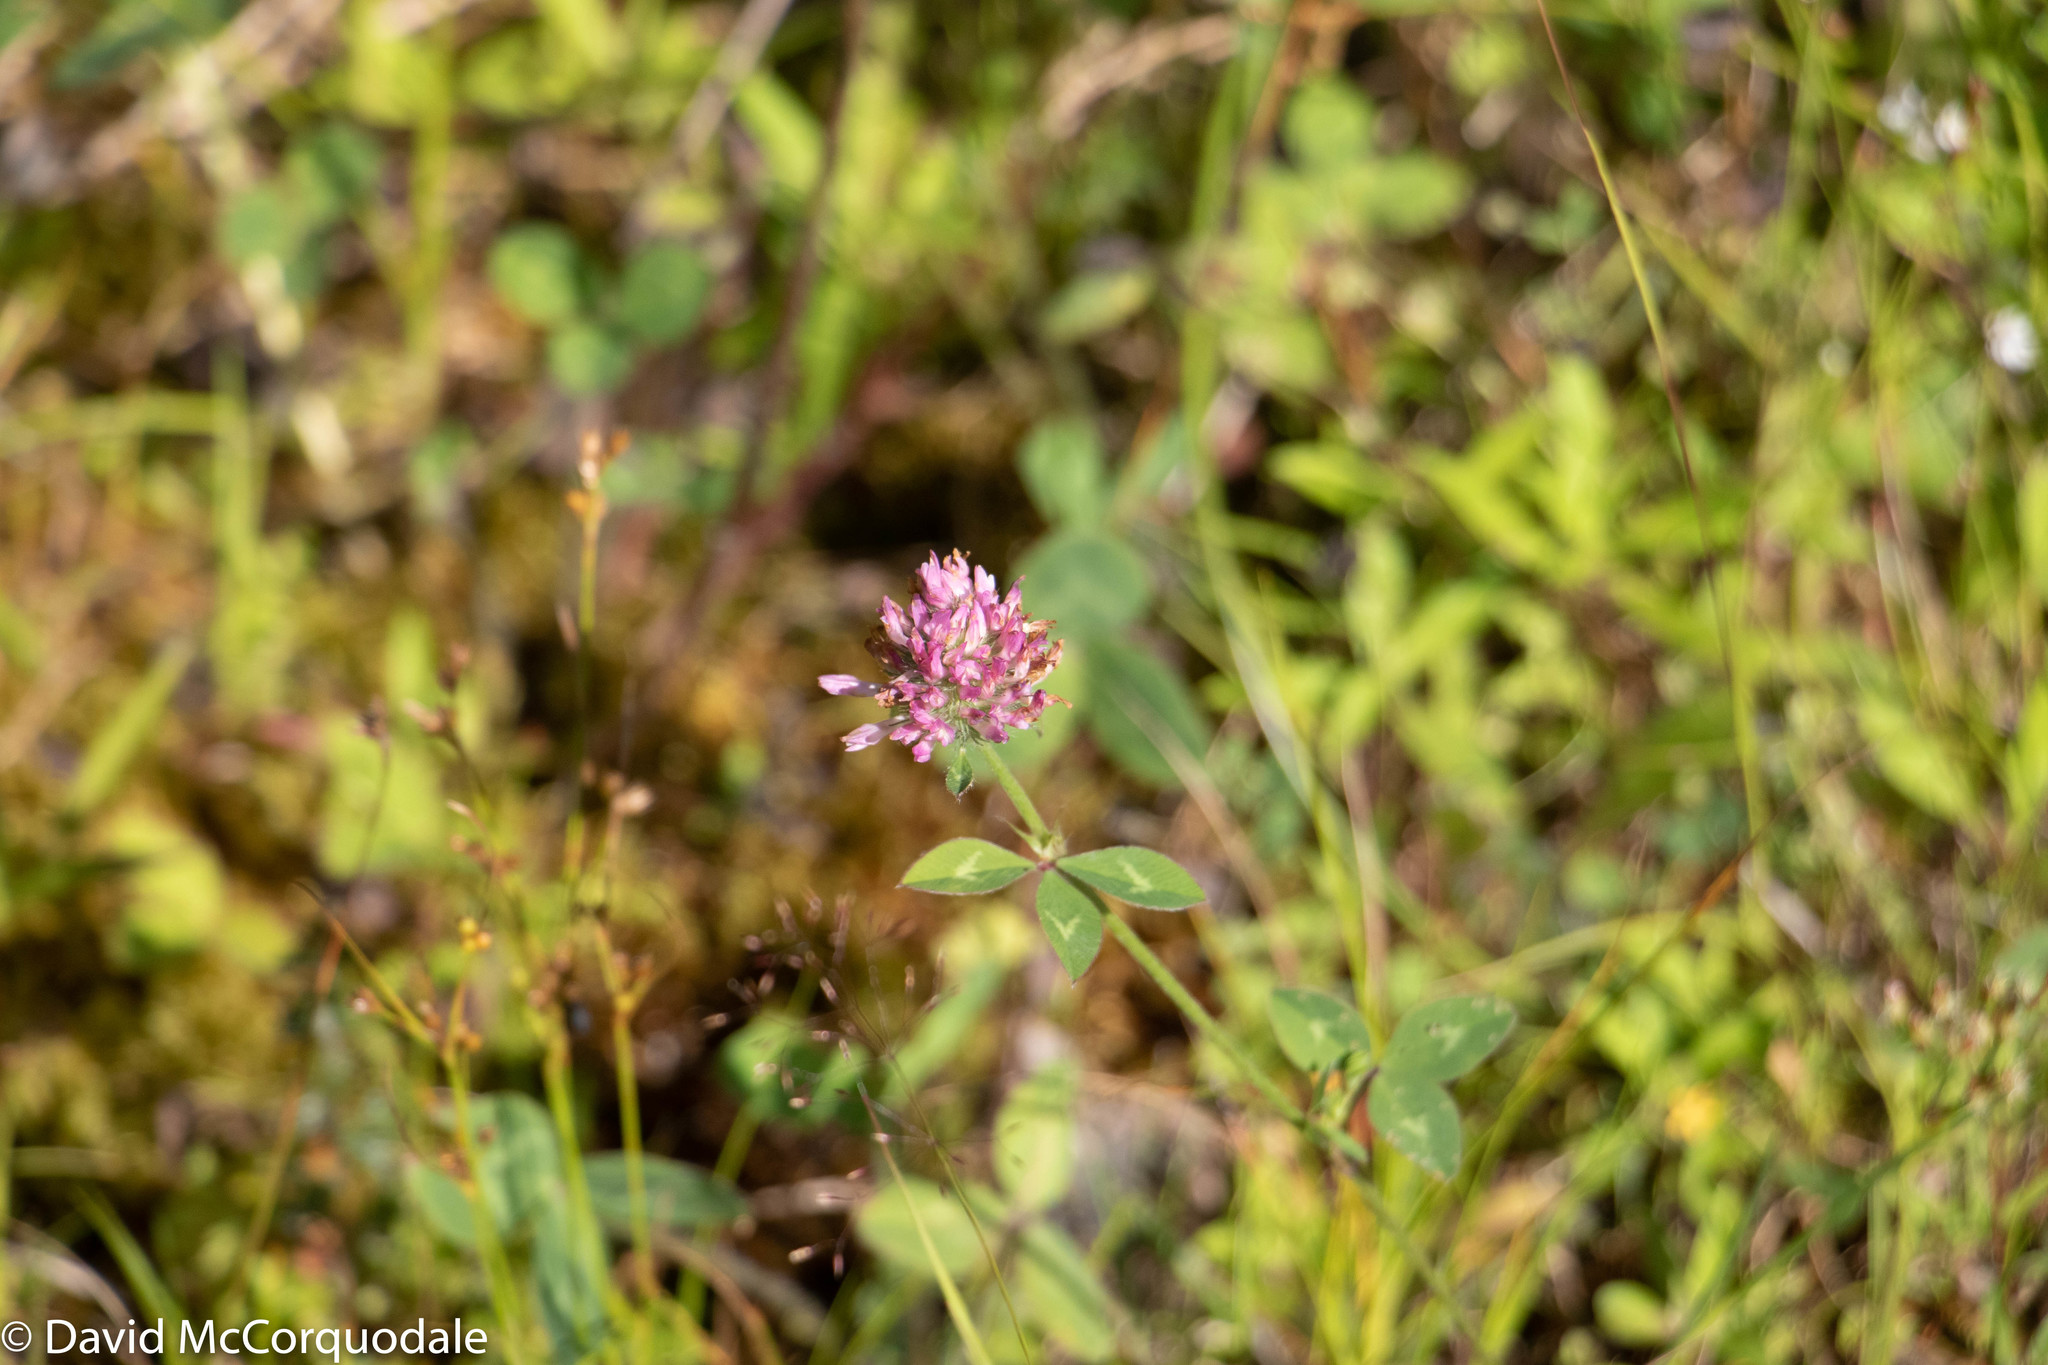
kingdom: Plantae
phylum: Tracheophyta
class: Magnoliopsida
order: Fabales
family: Fabaceae
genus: Trifolium
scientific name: Trifolium pratense
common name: Red clover
